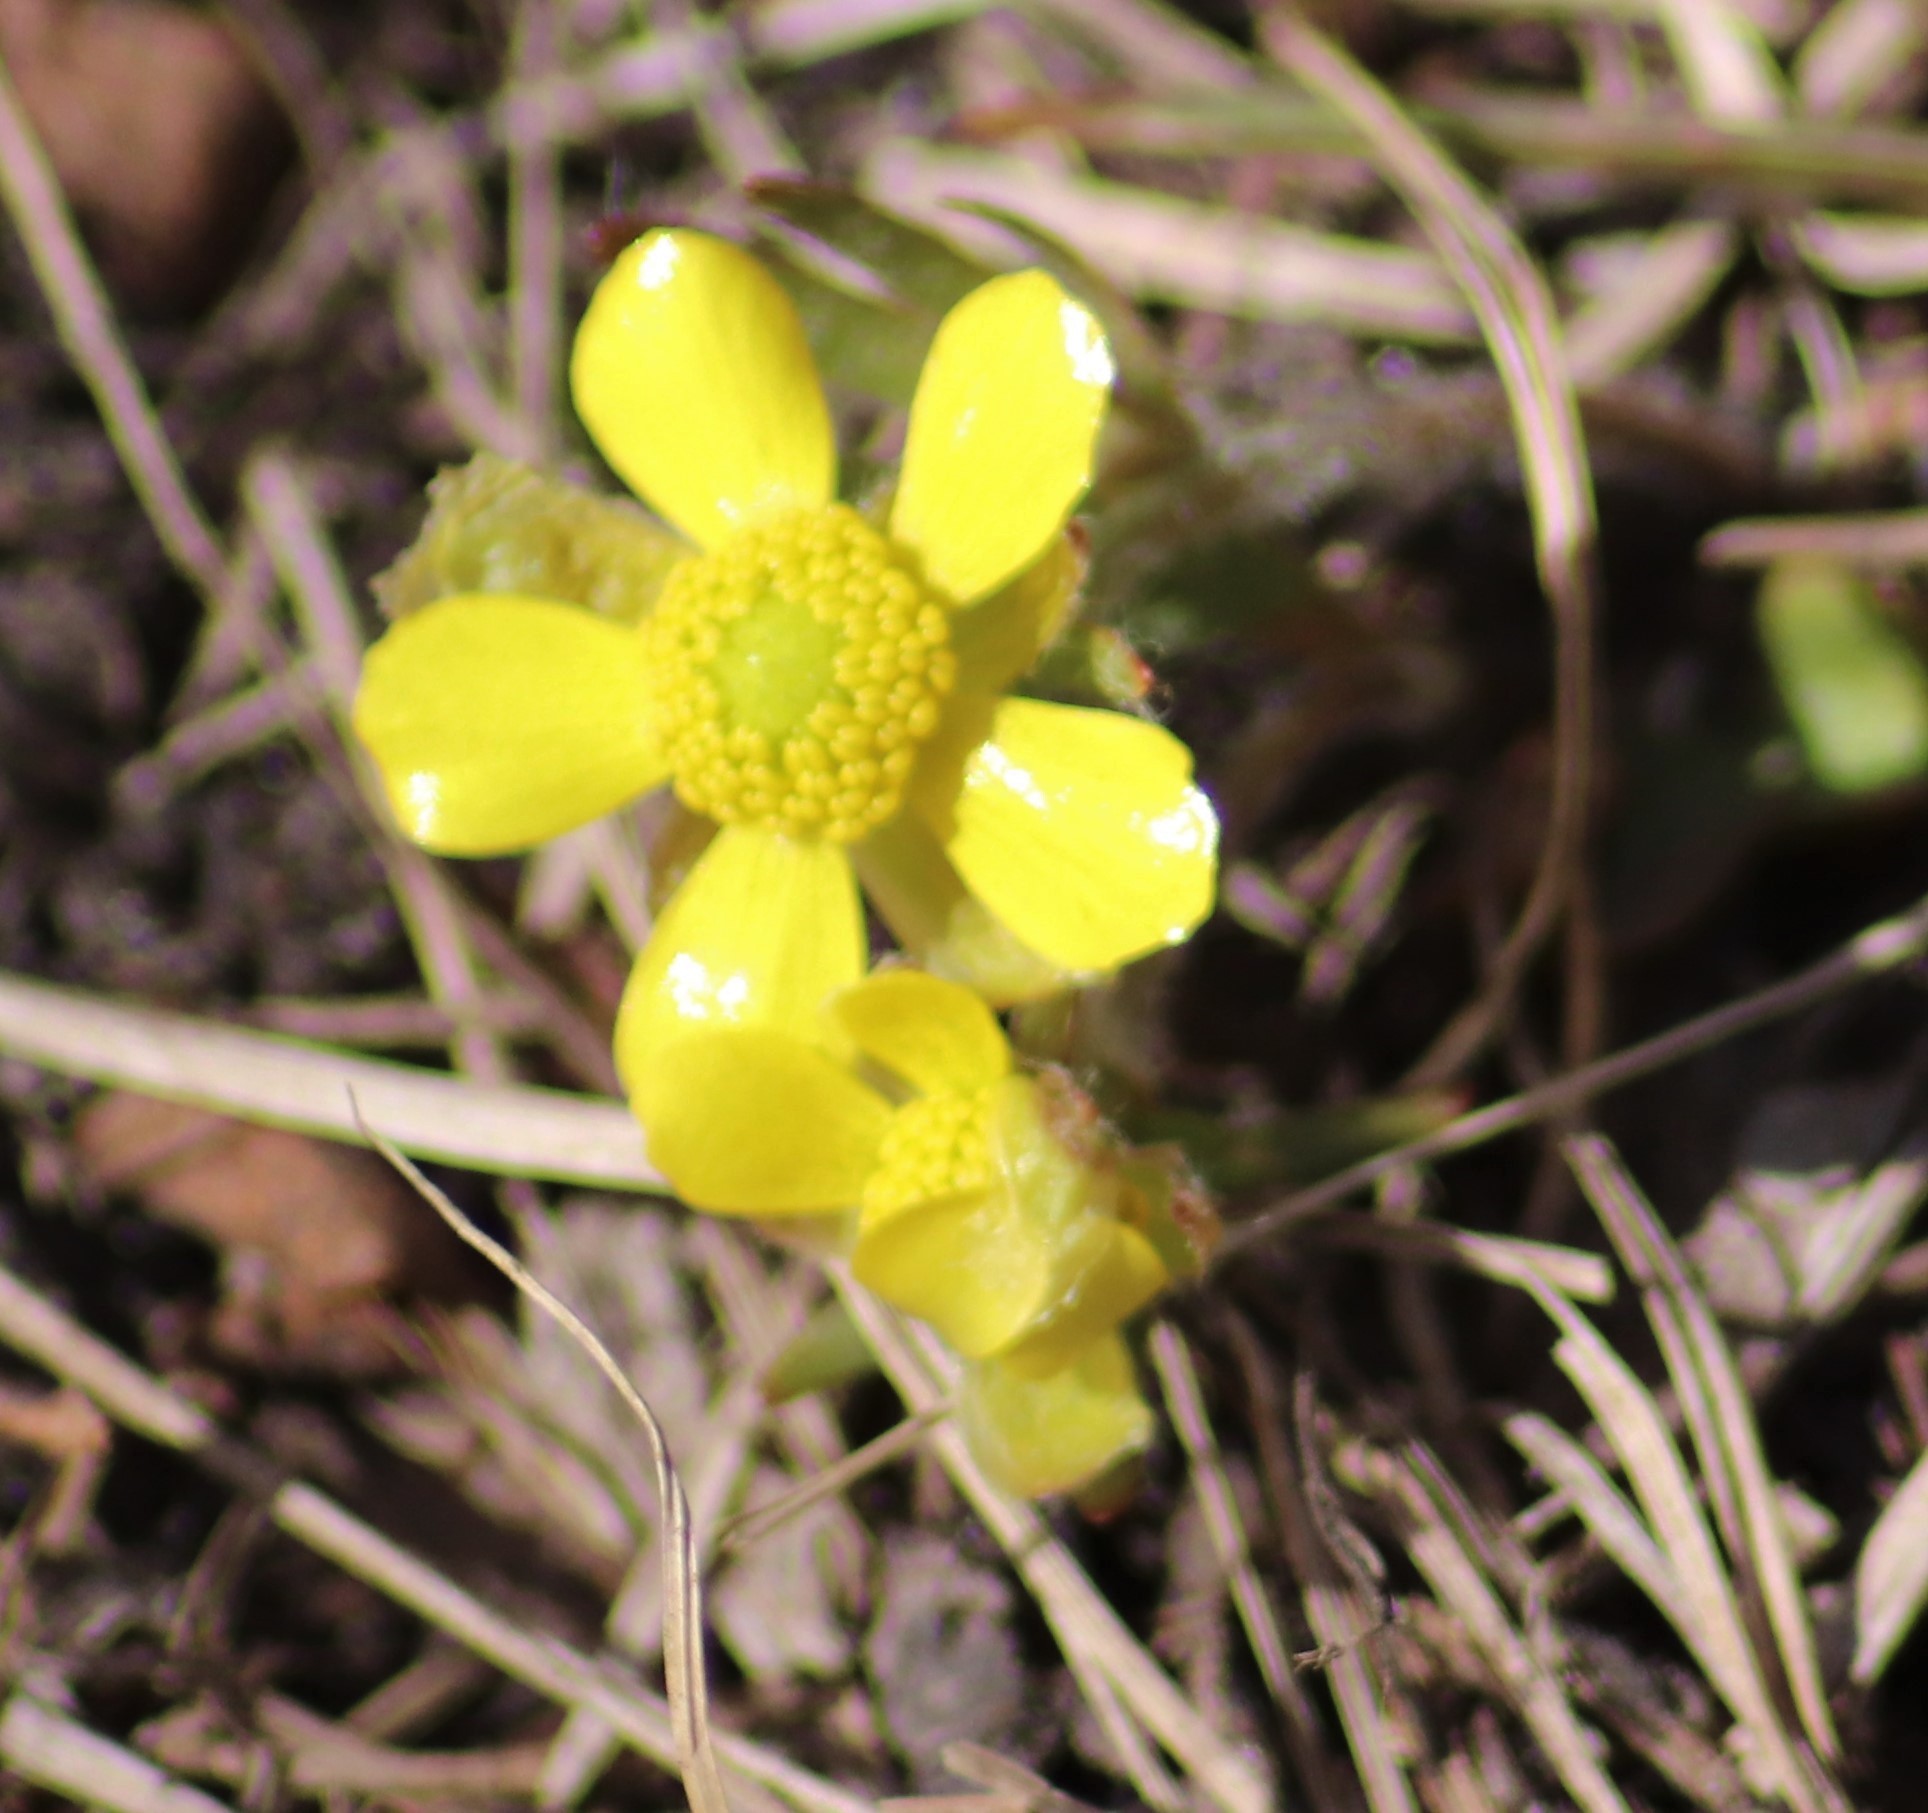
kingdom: Plantae
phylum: Tracheophyta
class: Magnoliopsida
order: Ranunculales
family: Ranunculaceae
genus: Ranunculus
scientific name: Ranunculus rhomboideus
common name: Prairie buttercup
